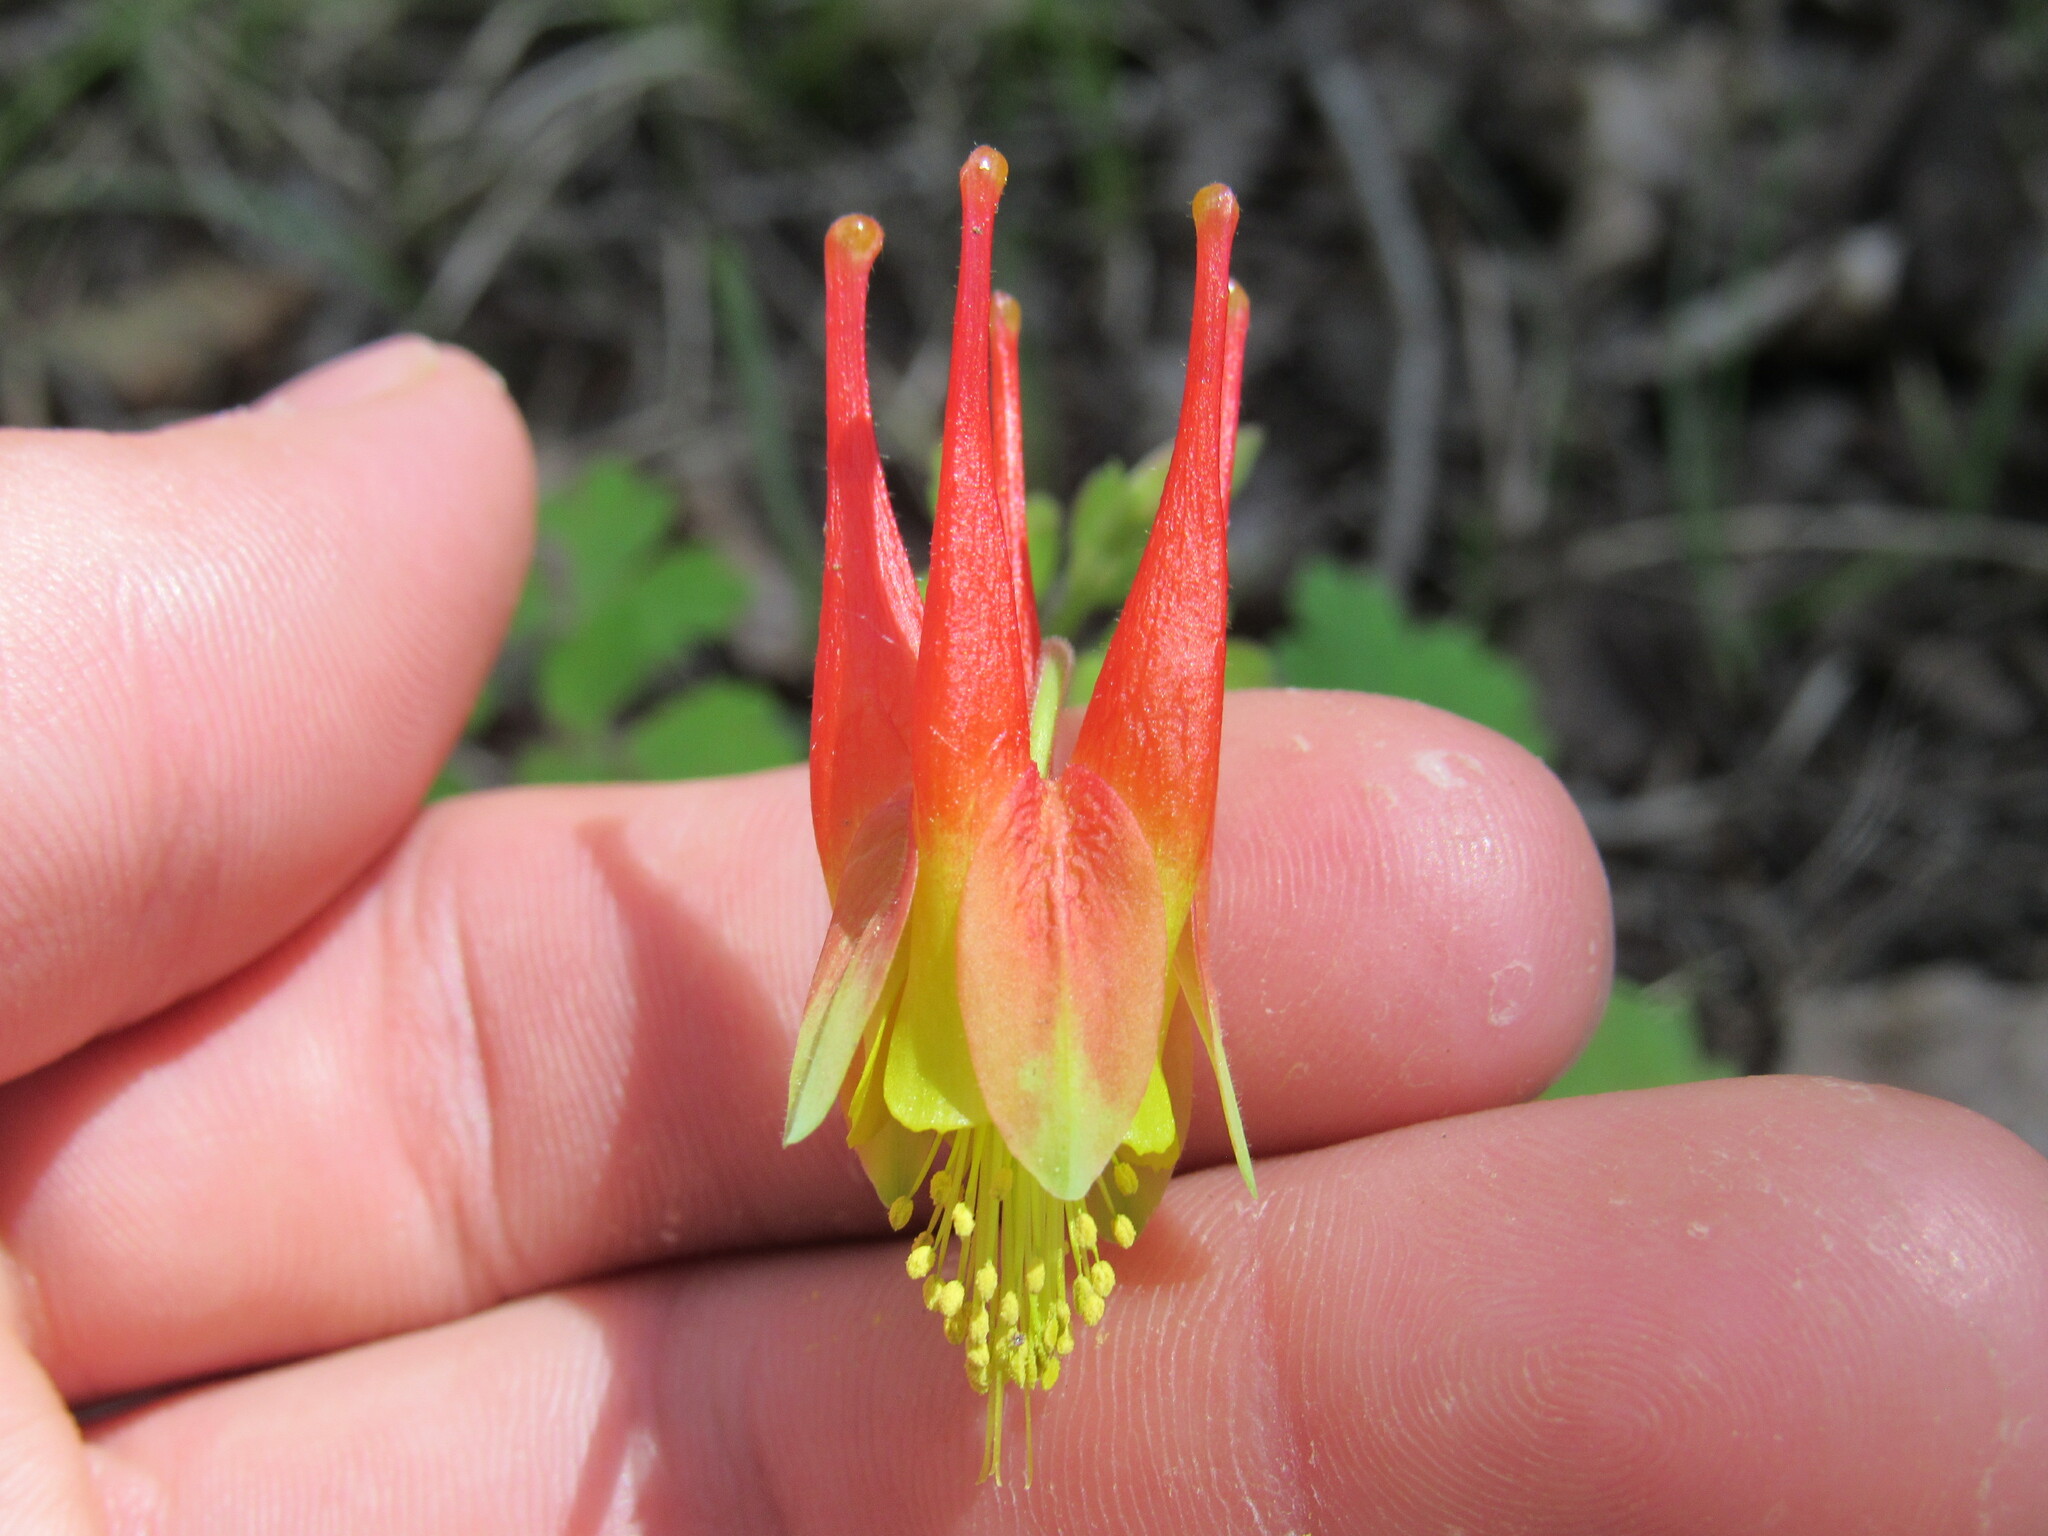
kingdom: Plantae
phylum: Tracheophyta
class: Magnoliopsida
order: Ranunculales
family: Ranunculaceae
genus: Aquilegia
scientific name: Aquilegia elegantula
